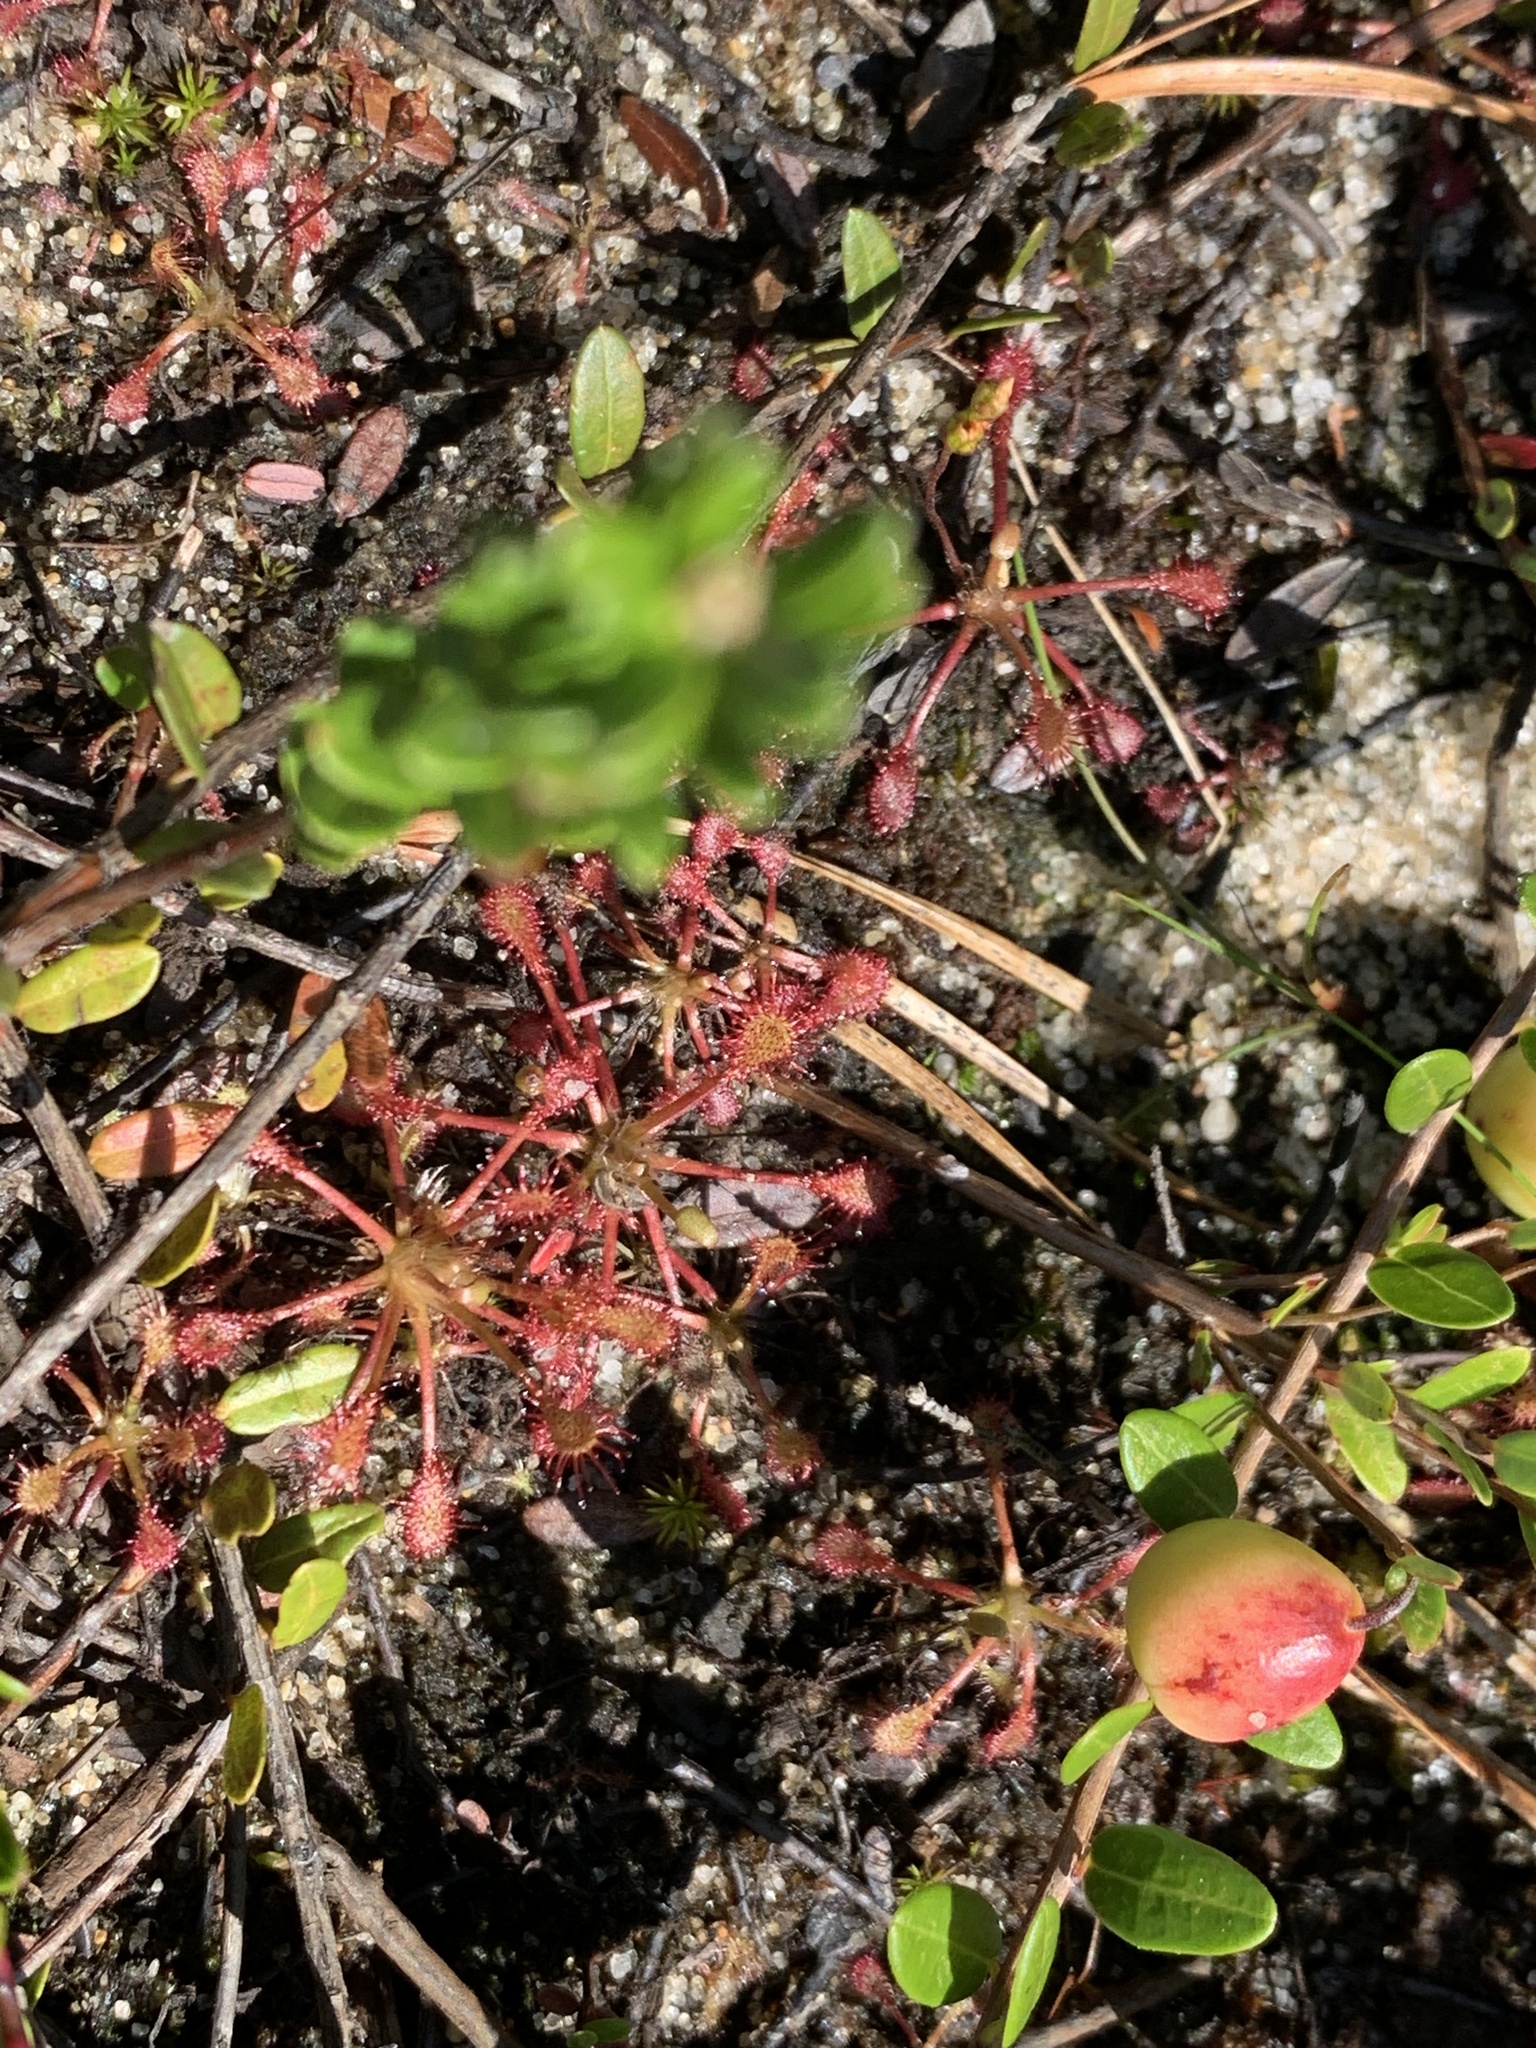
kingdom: Plantae
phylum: Tracheophyta
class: Magnoliopsida
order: Caryophyllales
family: Droseraceae
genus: Drosera
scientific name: Drosera intermedia
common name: Oblong-leaved sundew
